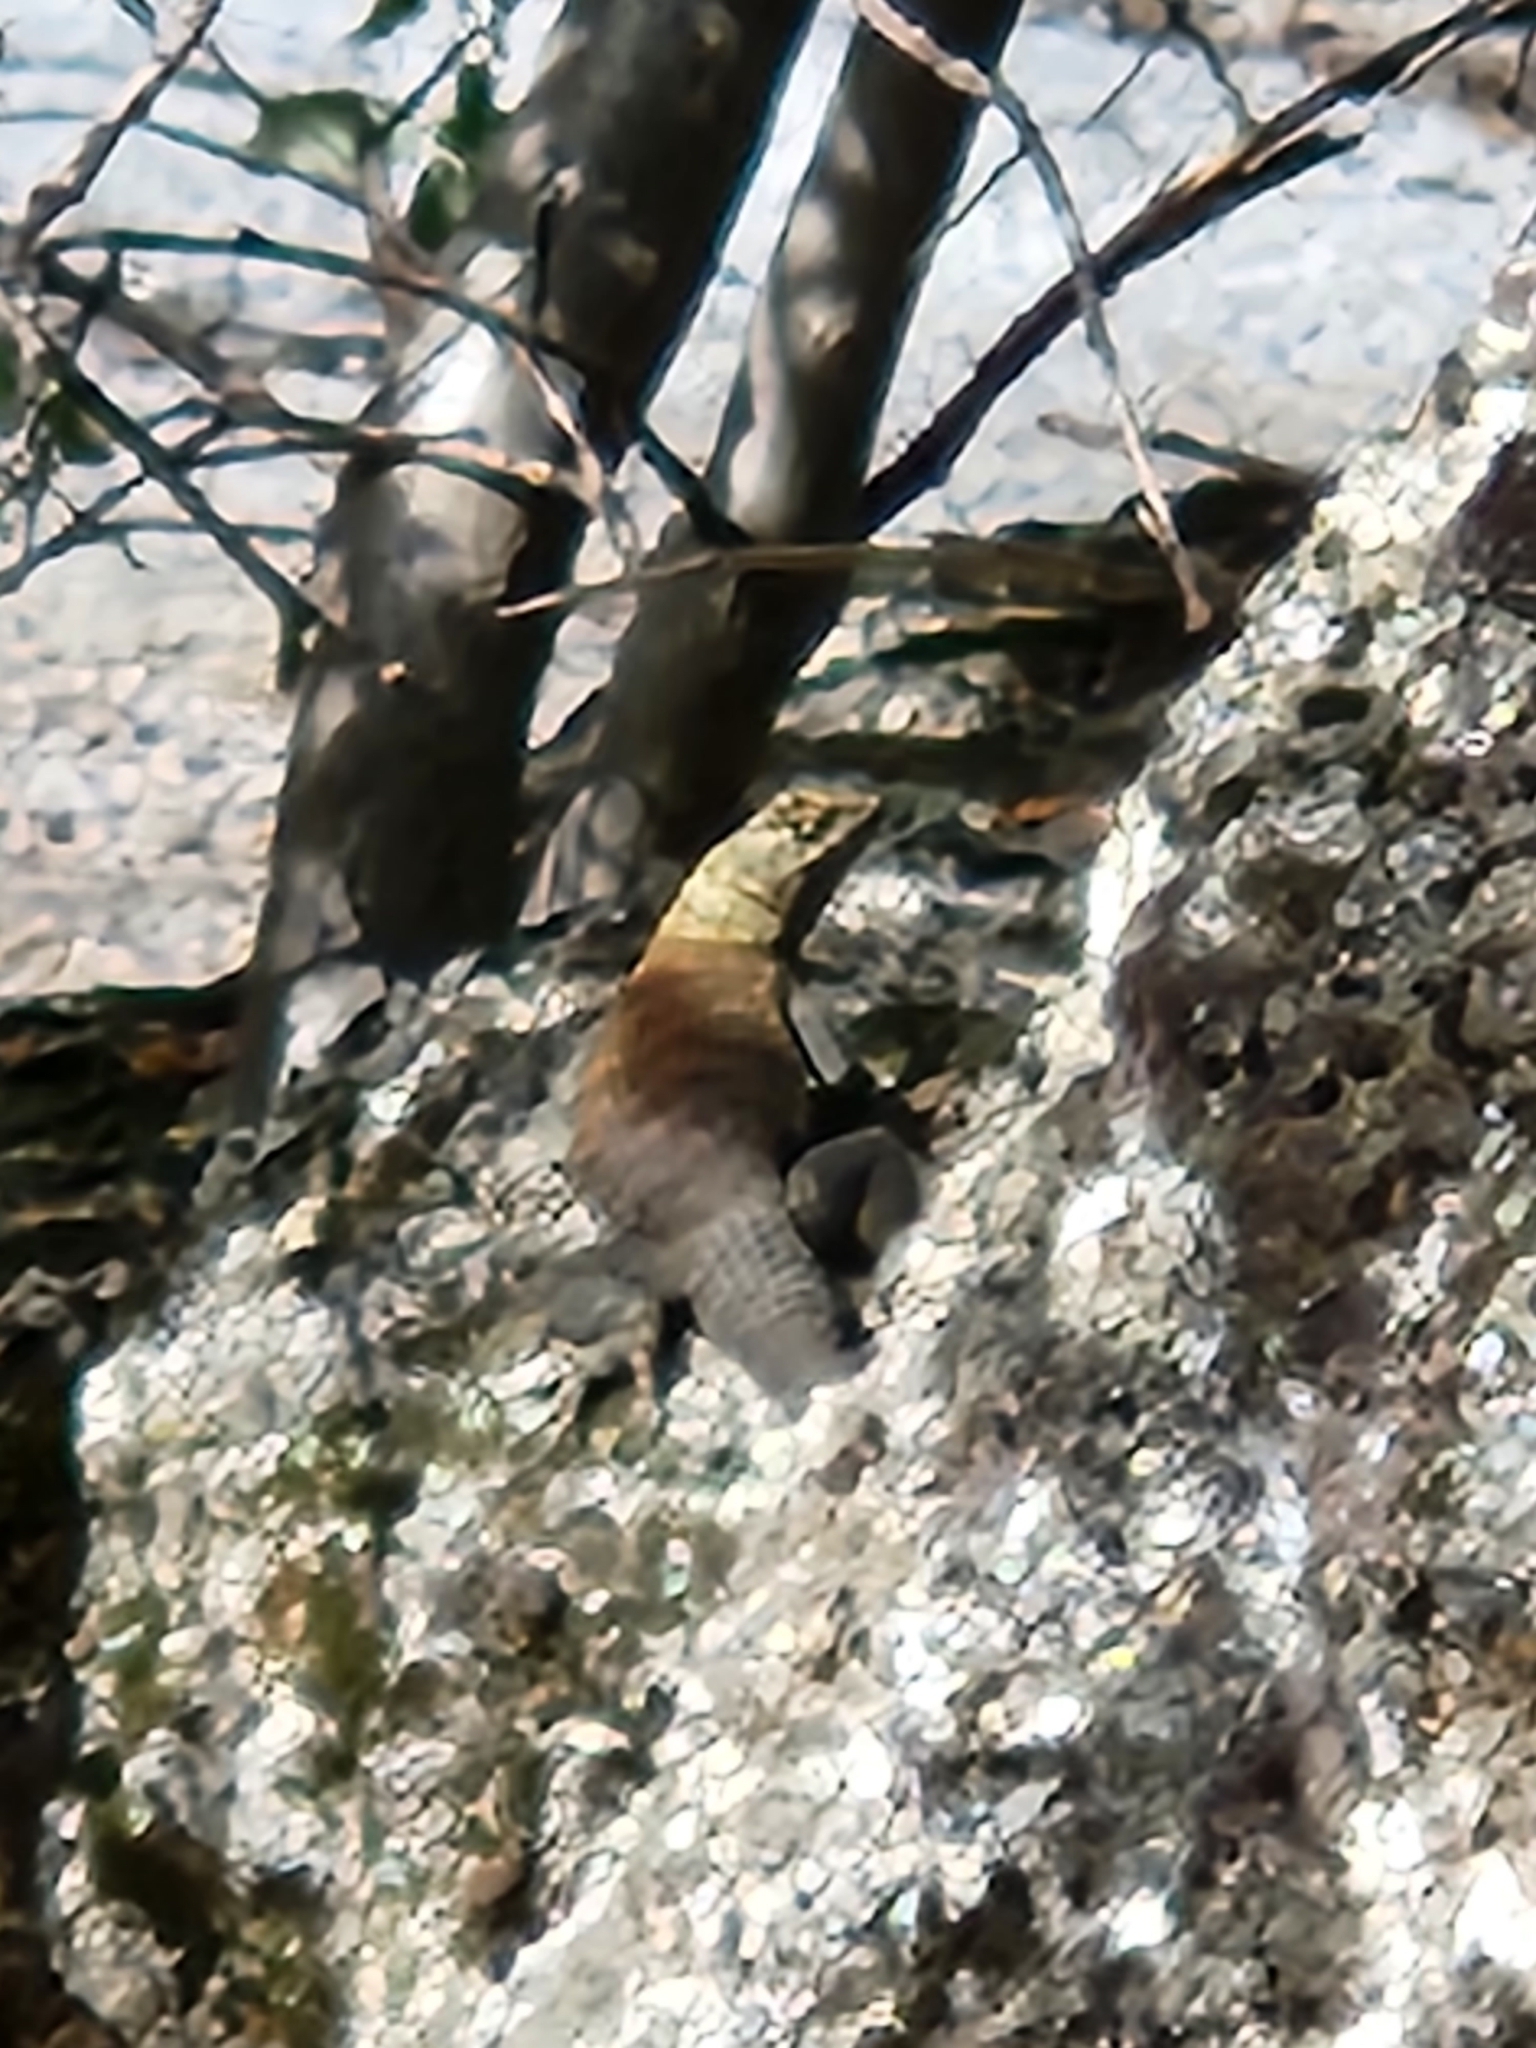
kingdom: Animalia
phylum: Chordata
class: Squamata
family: Phrynosomatidae
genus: Sceloporus
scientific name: Sceloporus orcutti
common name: Granite spiny lizard
